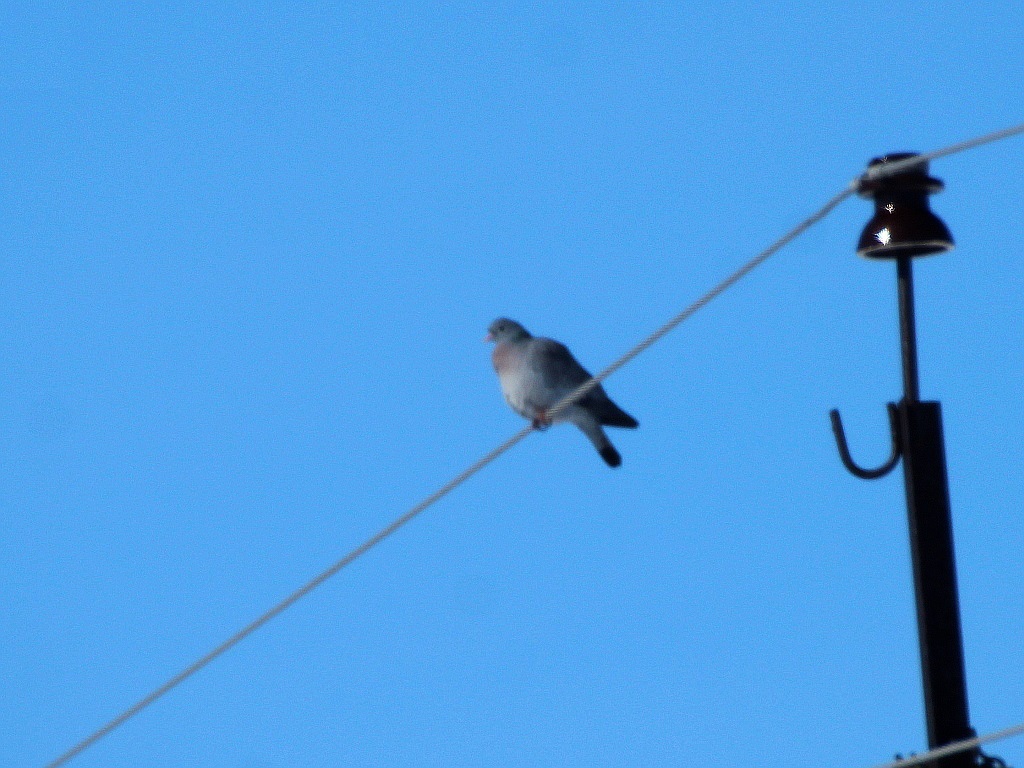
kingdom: Animalia
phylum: Chordata
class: Aves
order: Columbiformes
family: Columbidae
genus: Columba
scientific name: Columba oenas
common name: Stock dove
